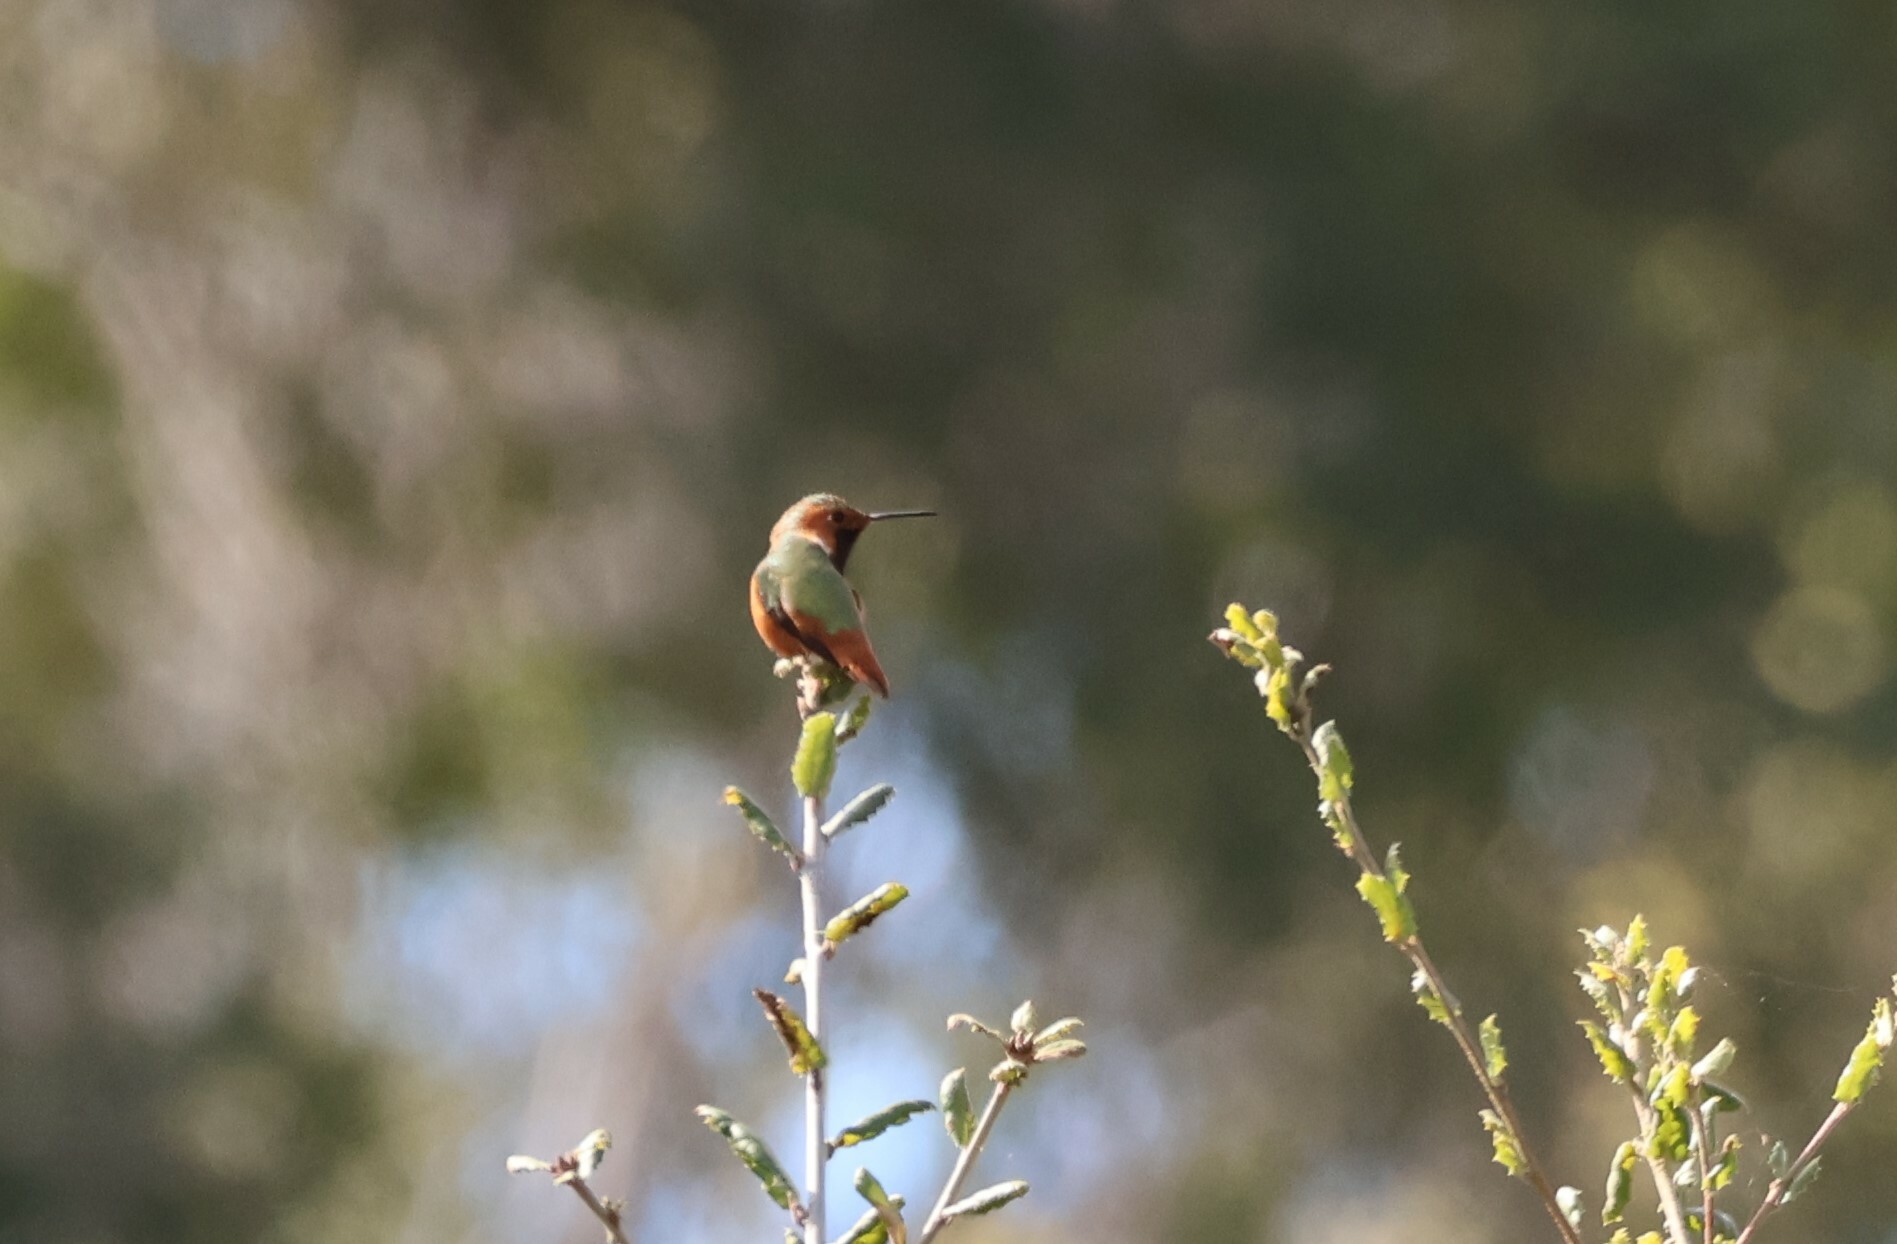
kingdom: Animalia
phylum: Chordata
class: Aves
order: Apodiformes
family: Trochilidae
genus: Selasphorus
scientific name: Selasphorus sasin
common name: Allen's hummingbird
